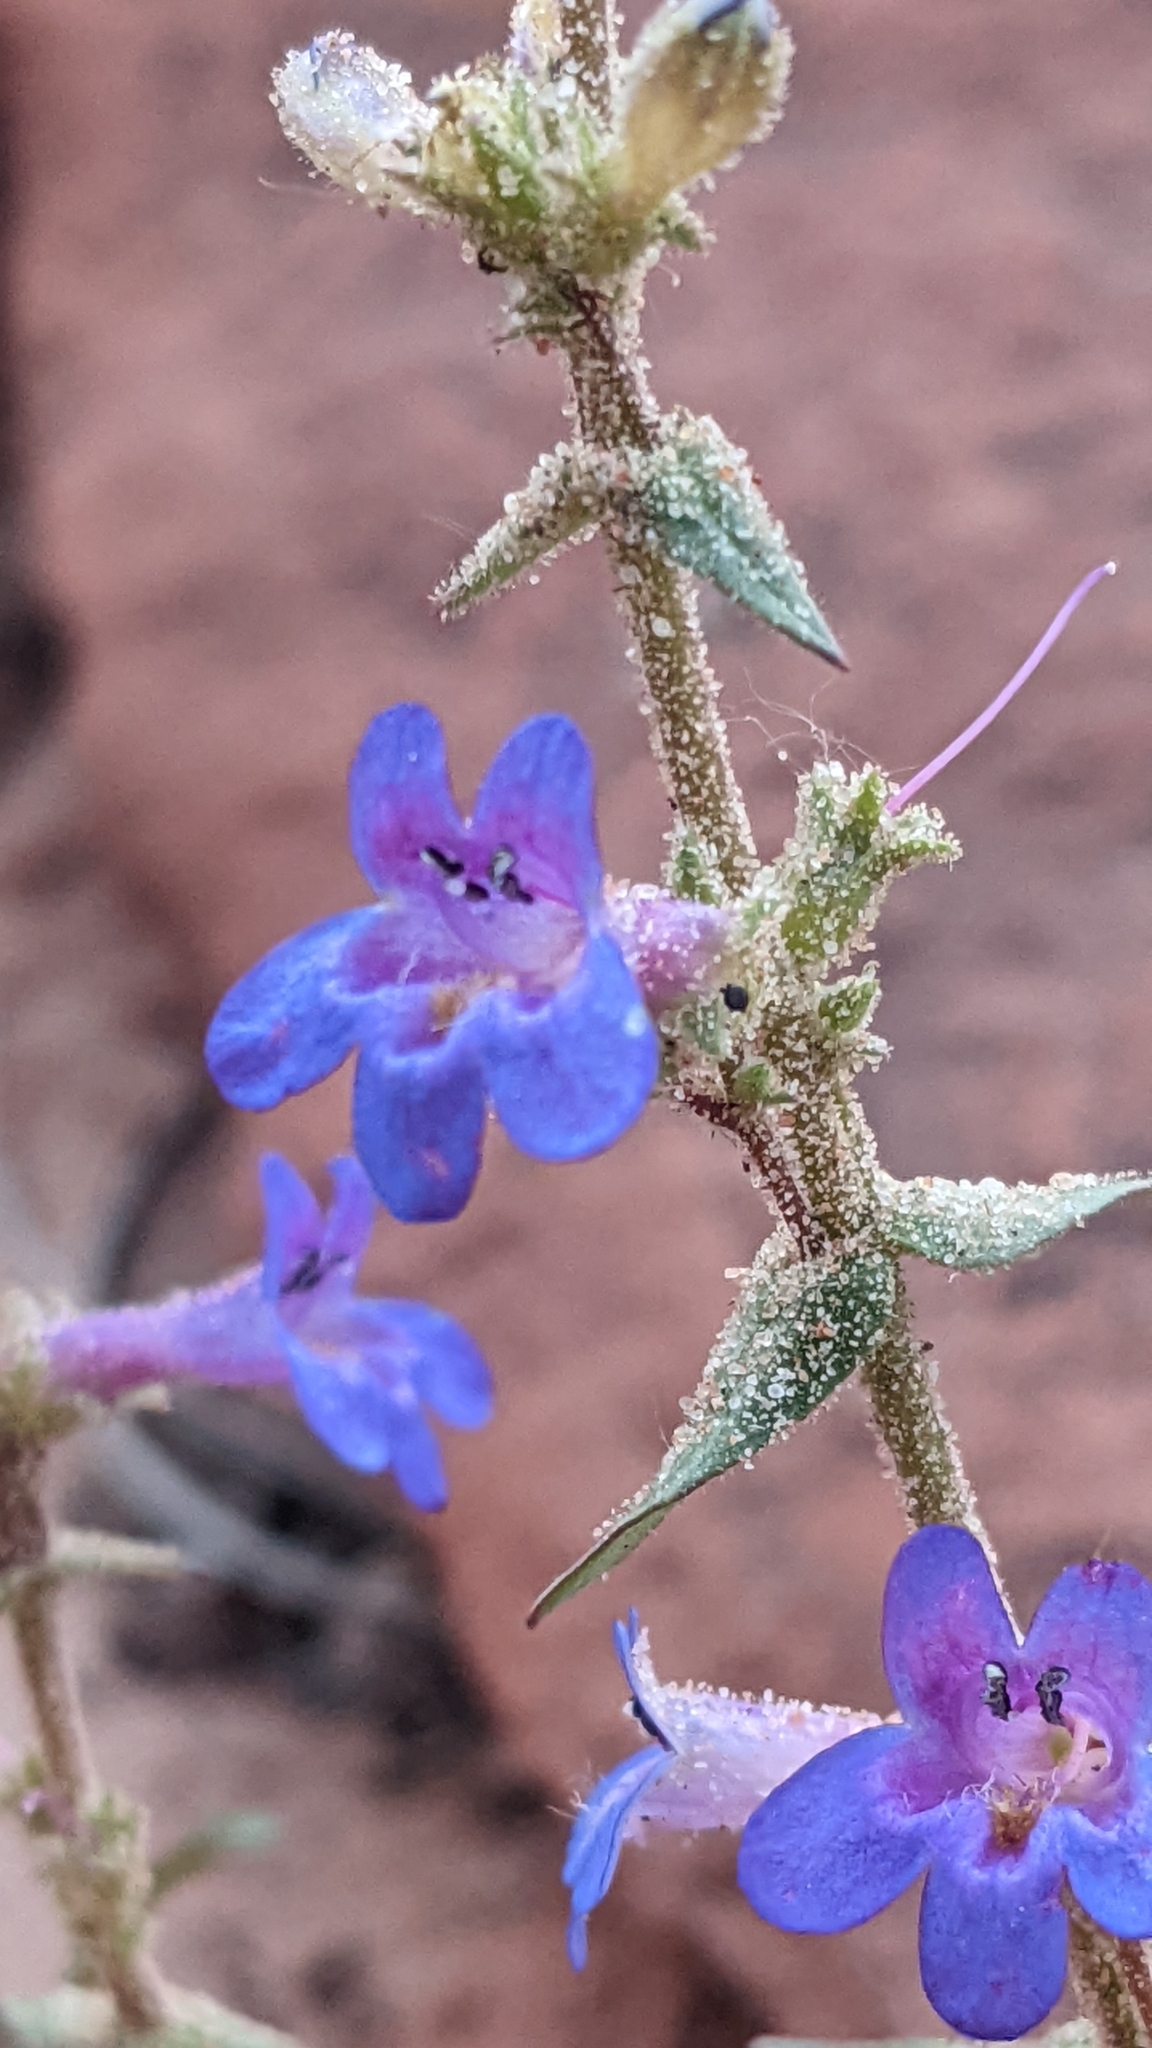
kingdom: Plantae
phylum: Tracheophyta
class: Magnoliopsida
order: Lamiales
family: Plantaginaceae
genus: Penstemon
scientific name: Penstemon humilis
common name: Low penstemon
